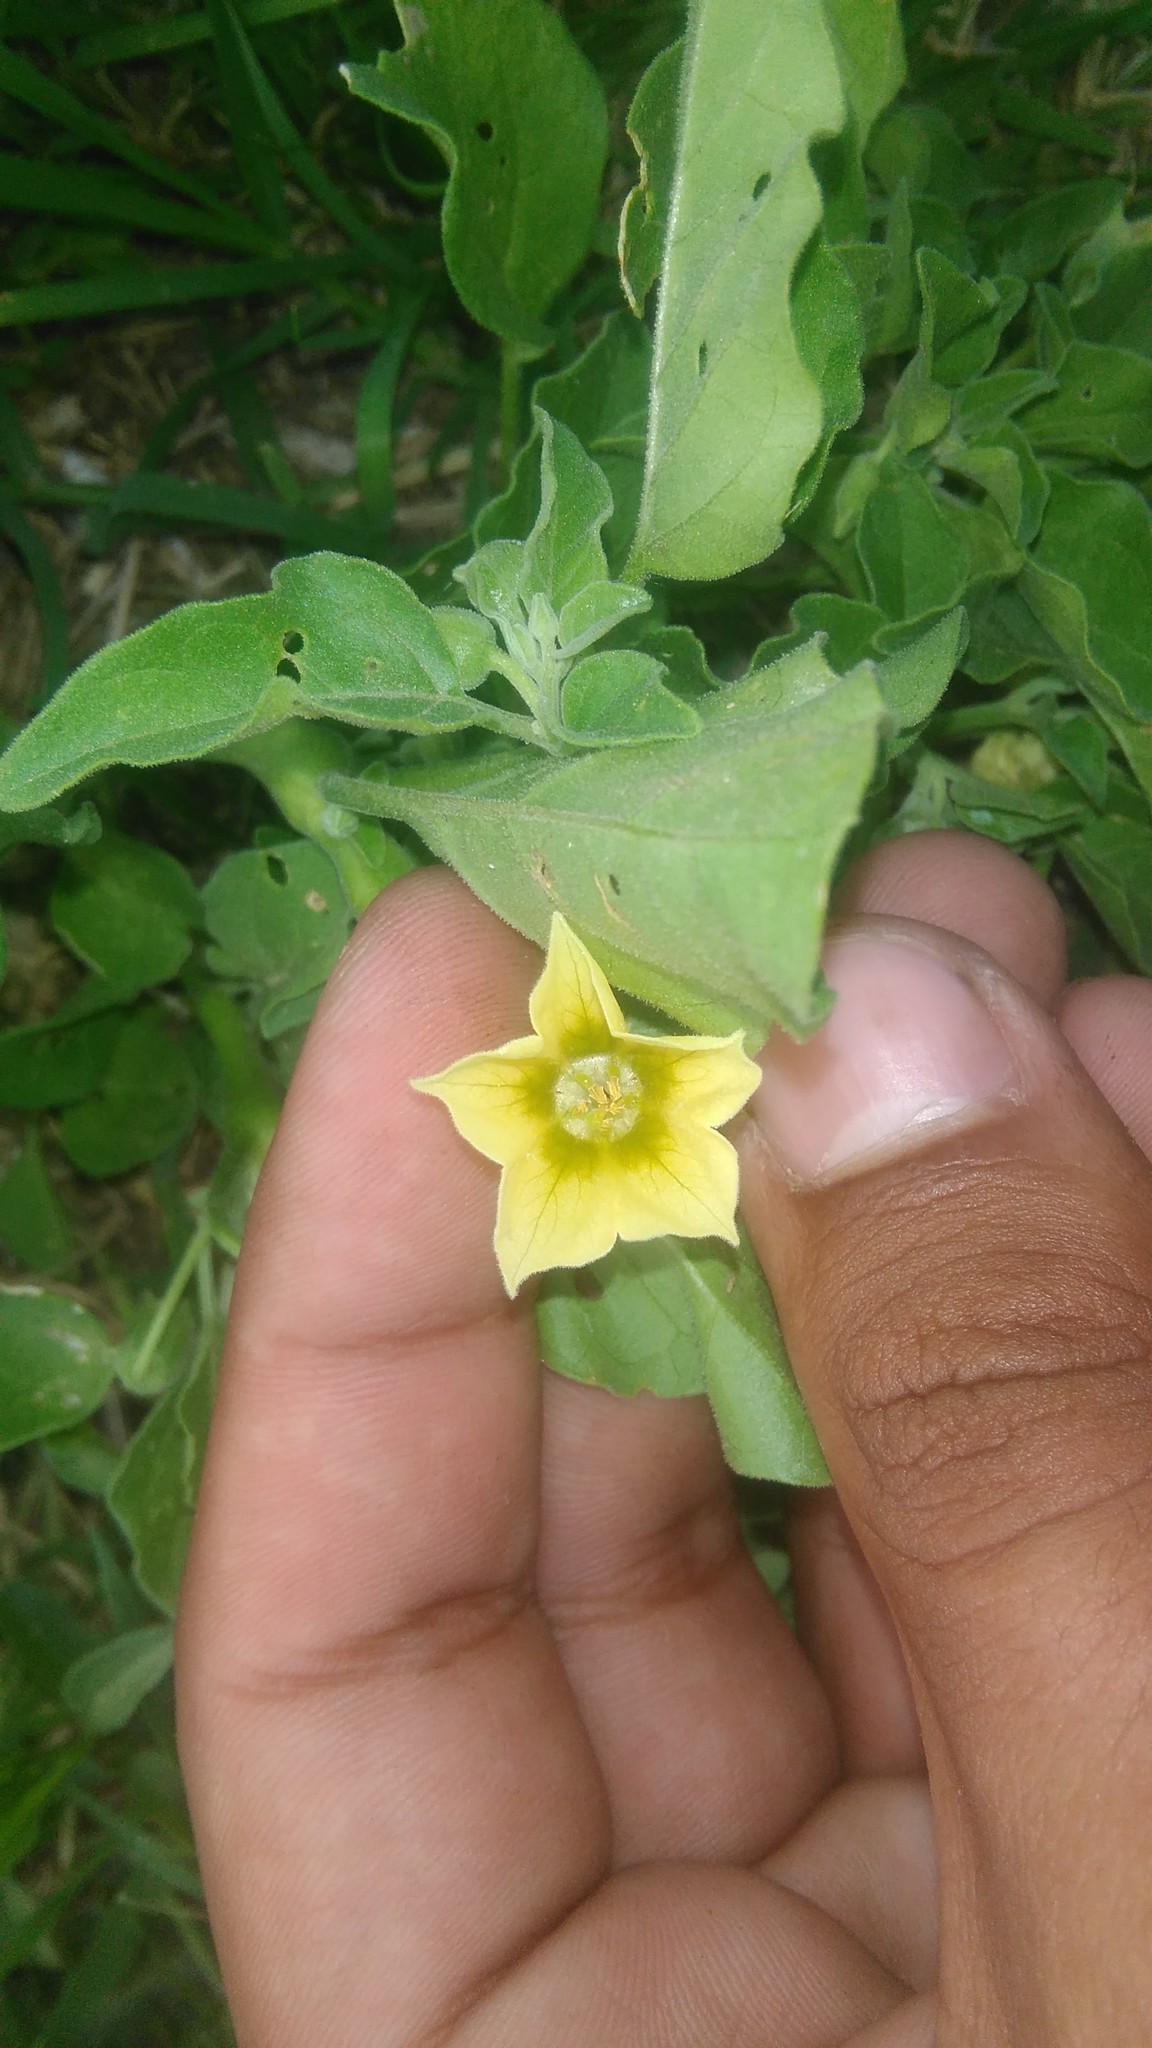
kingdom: Plantae
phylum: Tracheophyta
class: Magnoliopsida
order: Solanales
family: Solanaceae
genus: Physalis
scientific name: Physalis viscosa
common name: Stellate ground-cherry
